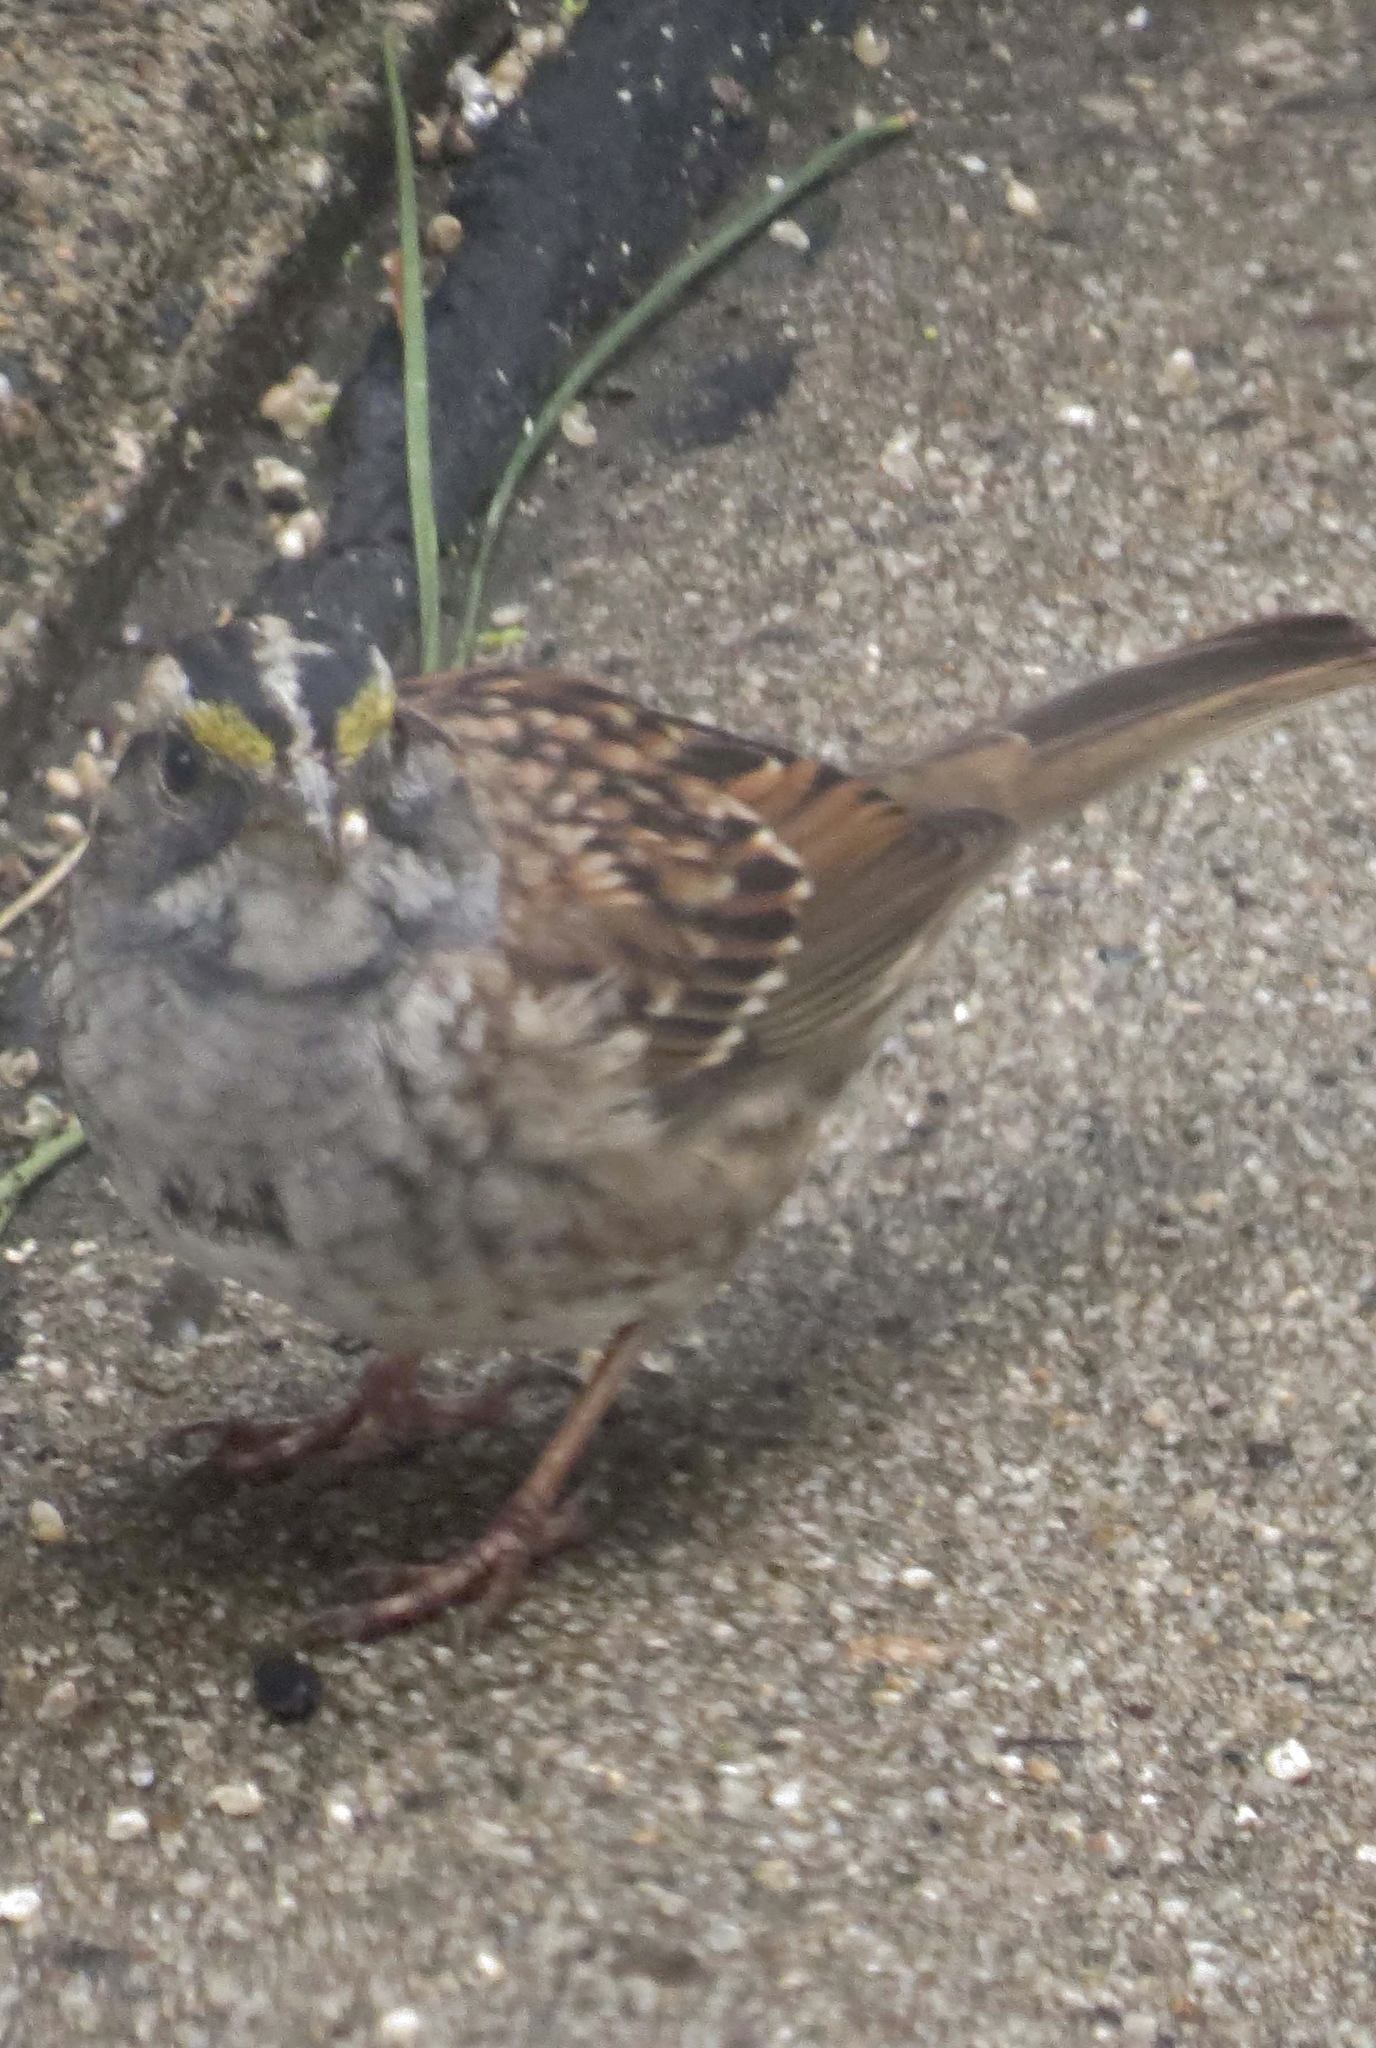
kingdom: Animalia
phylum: Chordata
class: Aves
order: Passeriformes
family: Passerellidae
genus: Zonotrichia
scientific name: Zonotrichia albicollis
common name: White-throated sparrow
